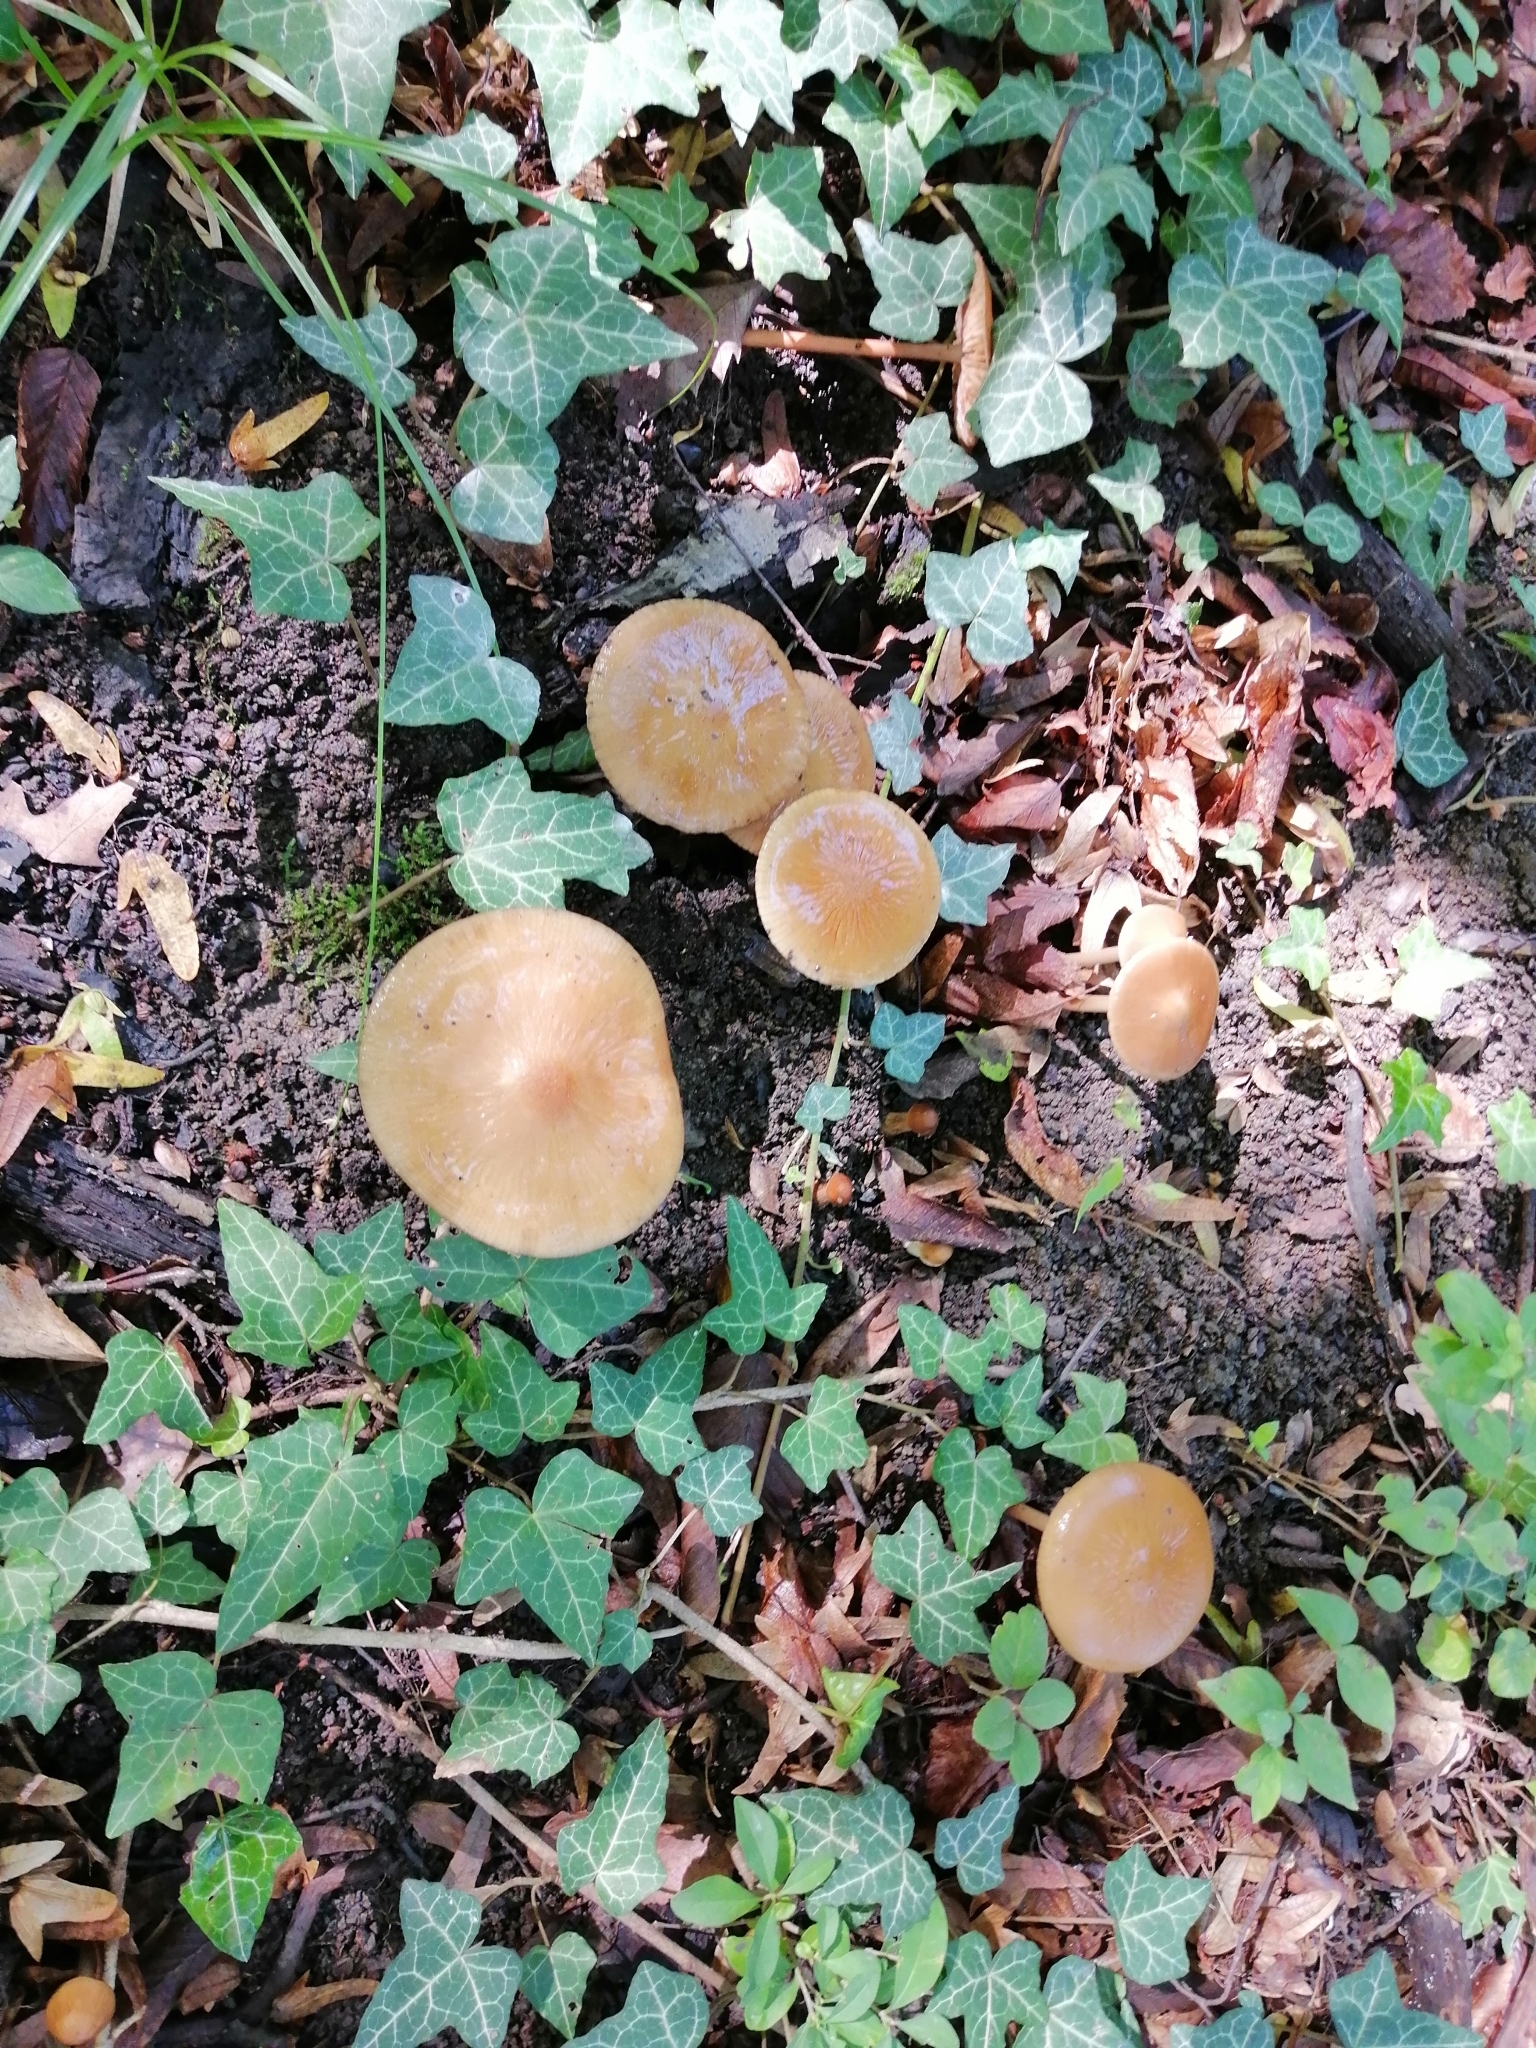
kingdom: Fungi
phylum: Basidiomycota
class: Agaricomycetes
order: Agaricales
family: Physalacriaceae
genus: Hymenopellis
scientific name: Hymenopellis radicata
